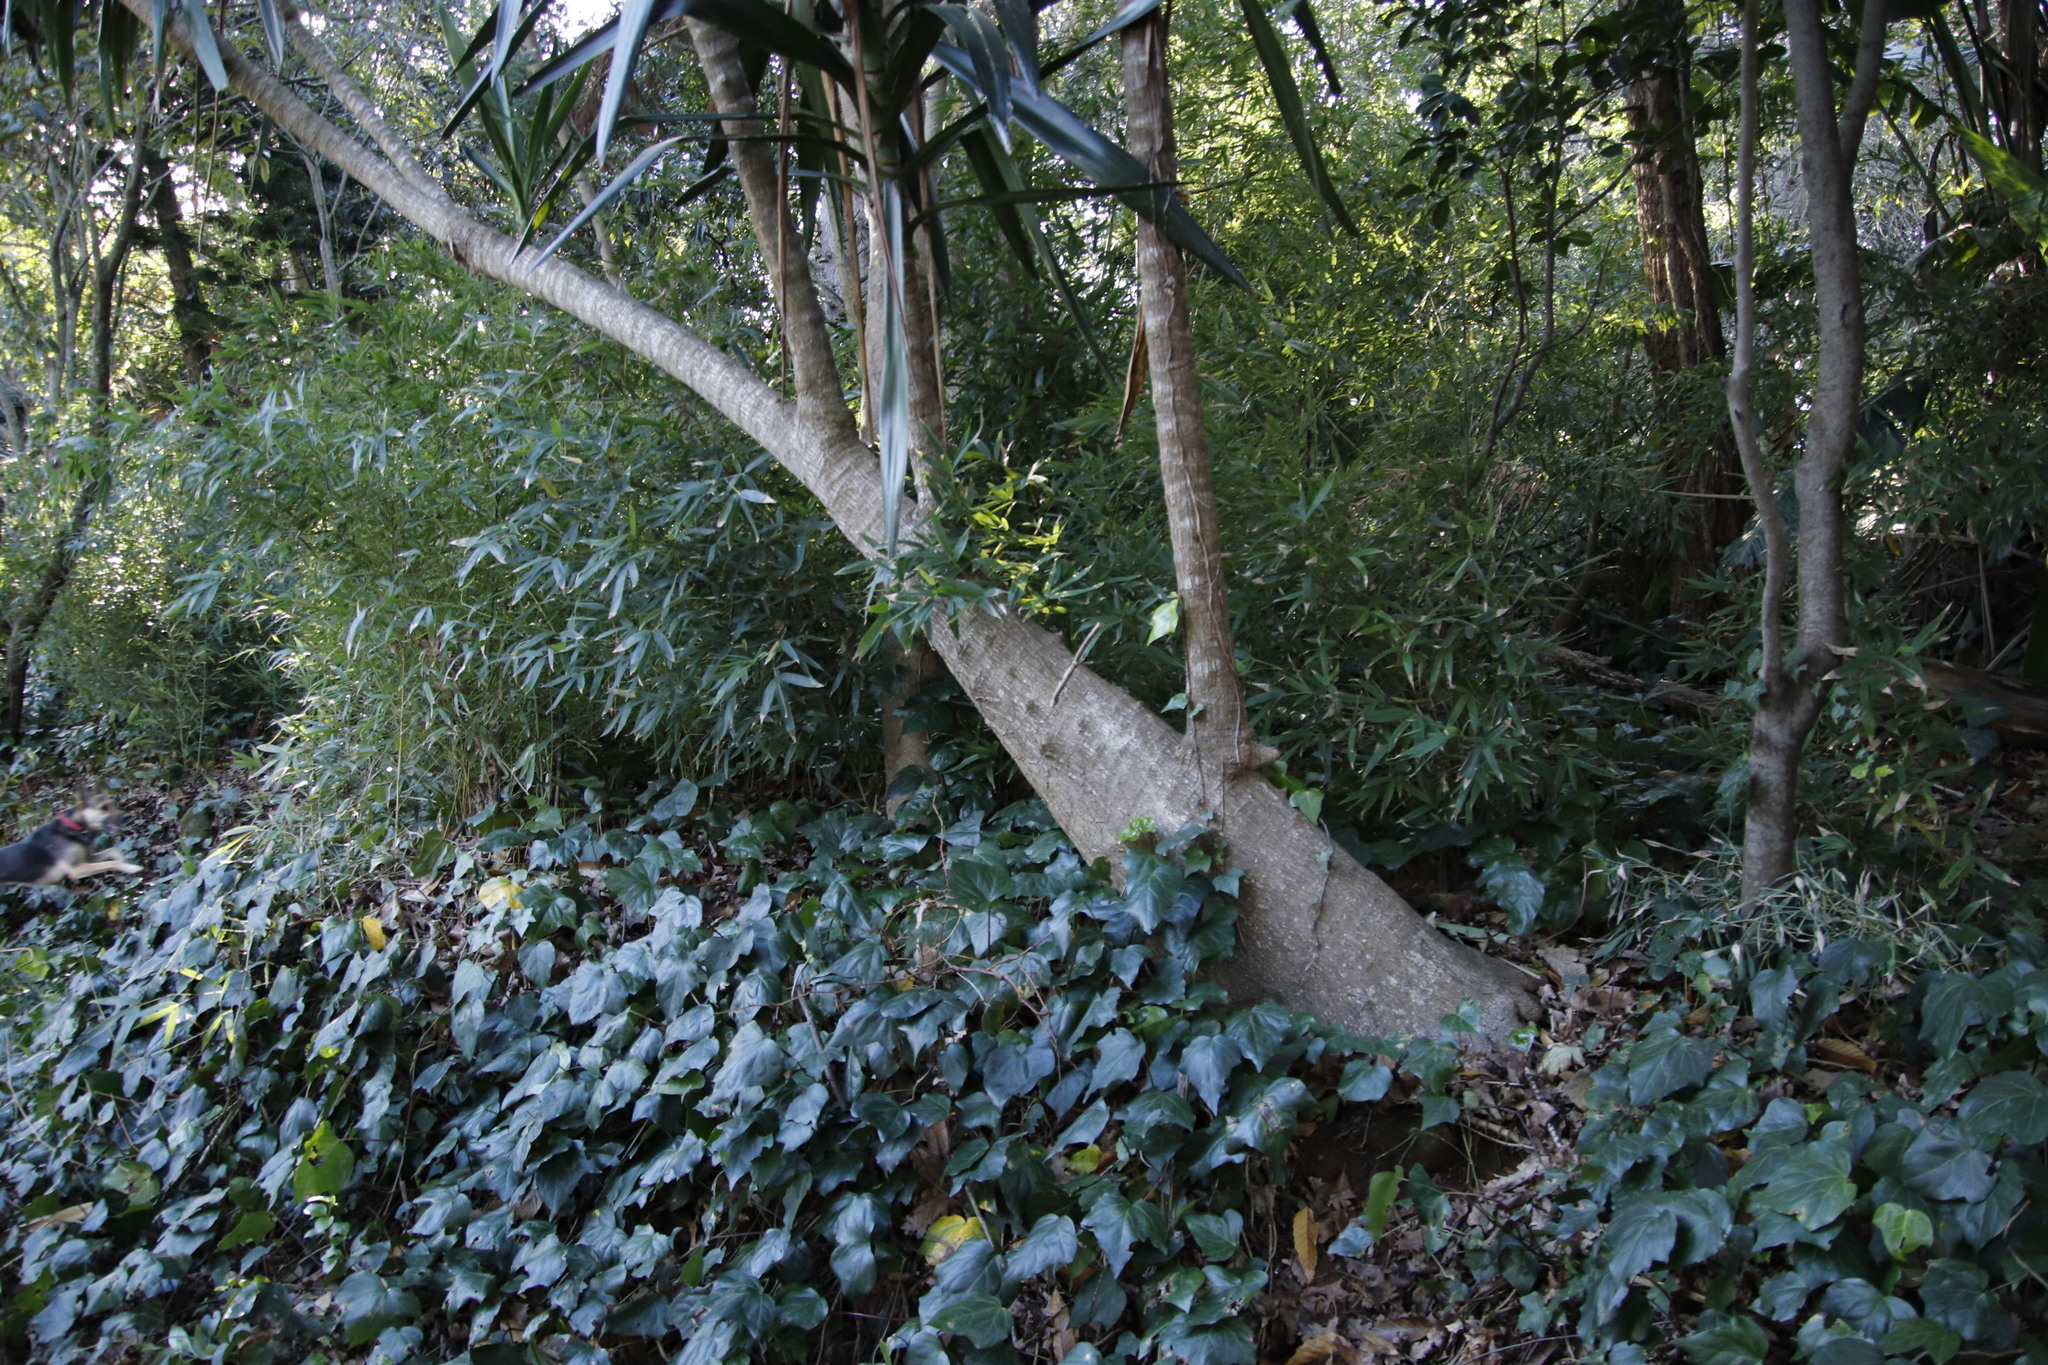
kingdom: Plantae
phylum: Tracheophyta
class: Liliopsida
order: Asparagales
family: Asparagaceae
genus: Yucca
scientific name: Yucca gigantea
